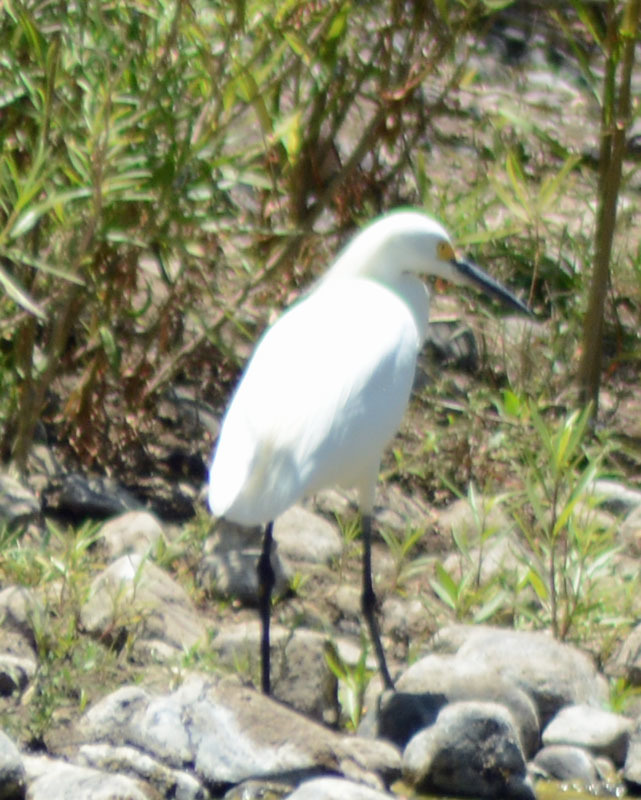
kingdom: Animalia
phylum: Chordata
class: Aves
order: Pelecaniformes
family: Ardeidae
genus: Egretta
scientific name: Egretta thula
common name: Snowy egret
